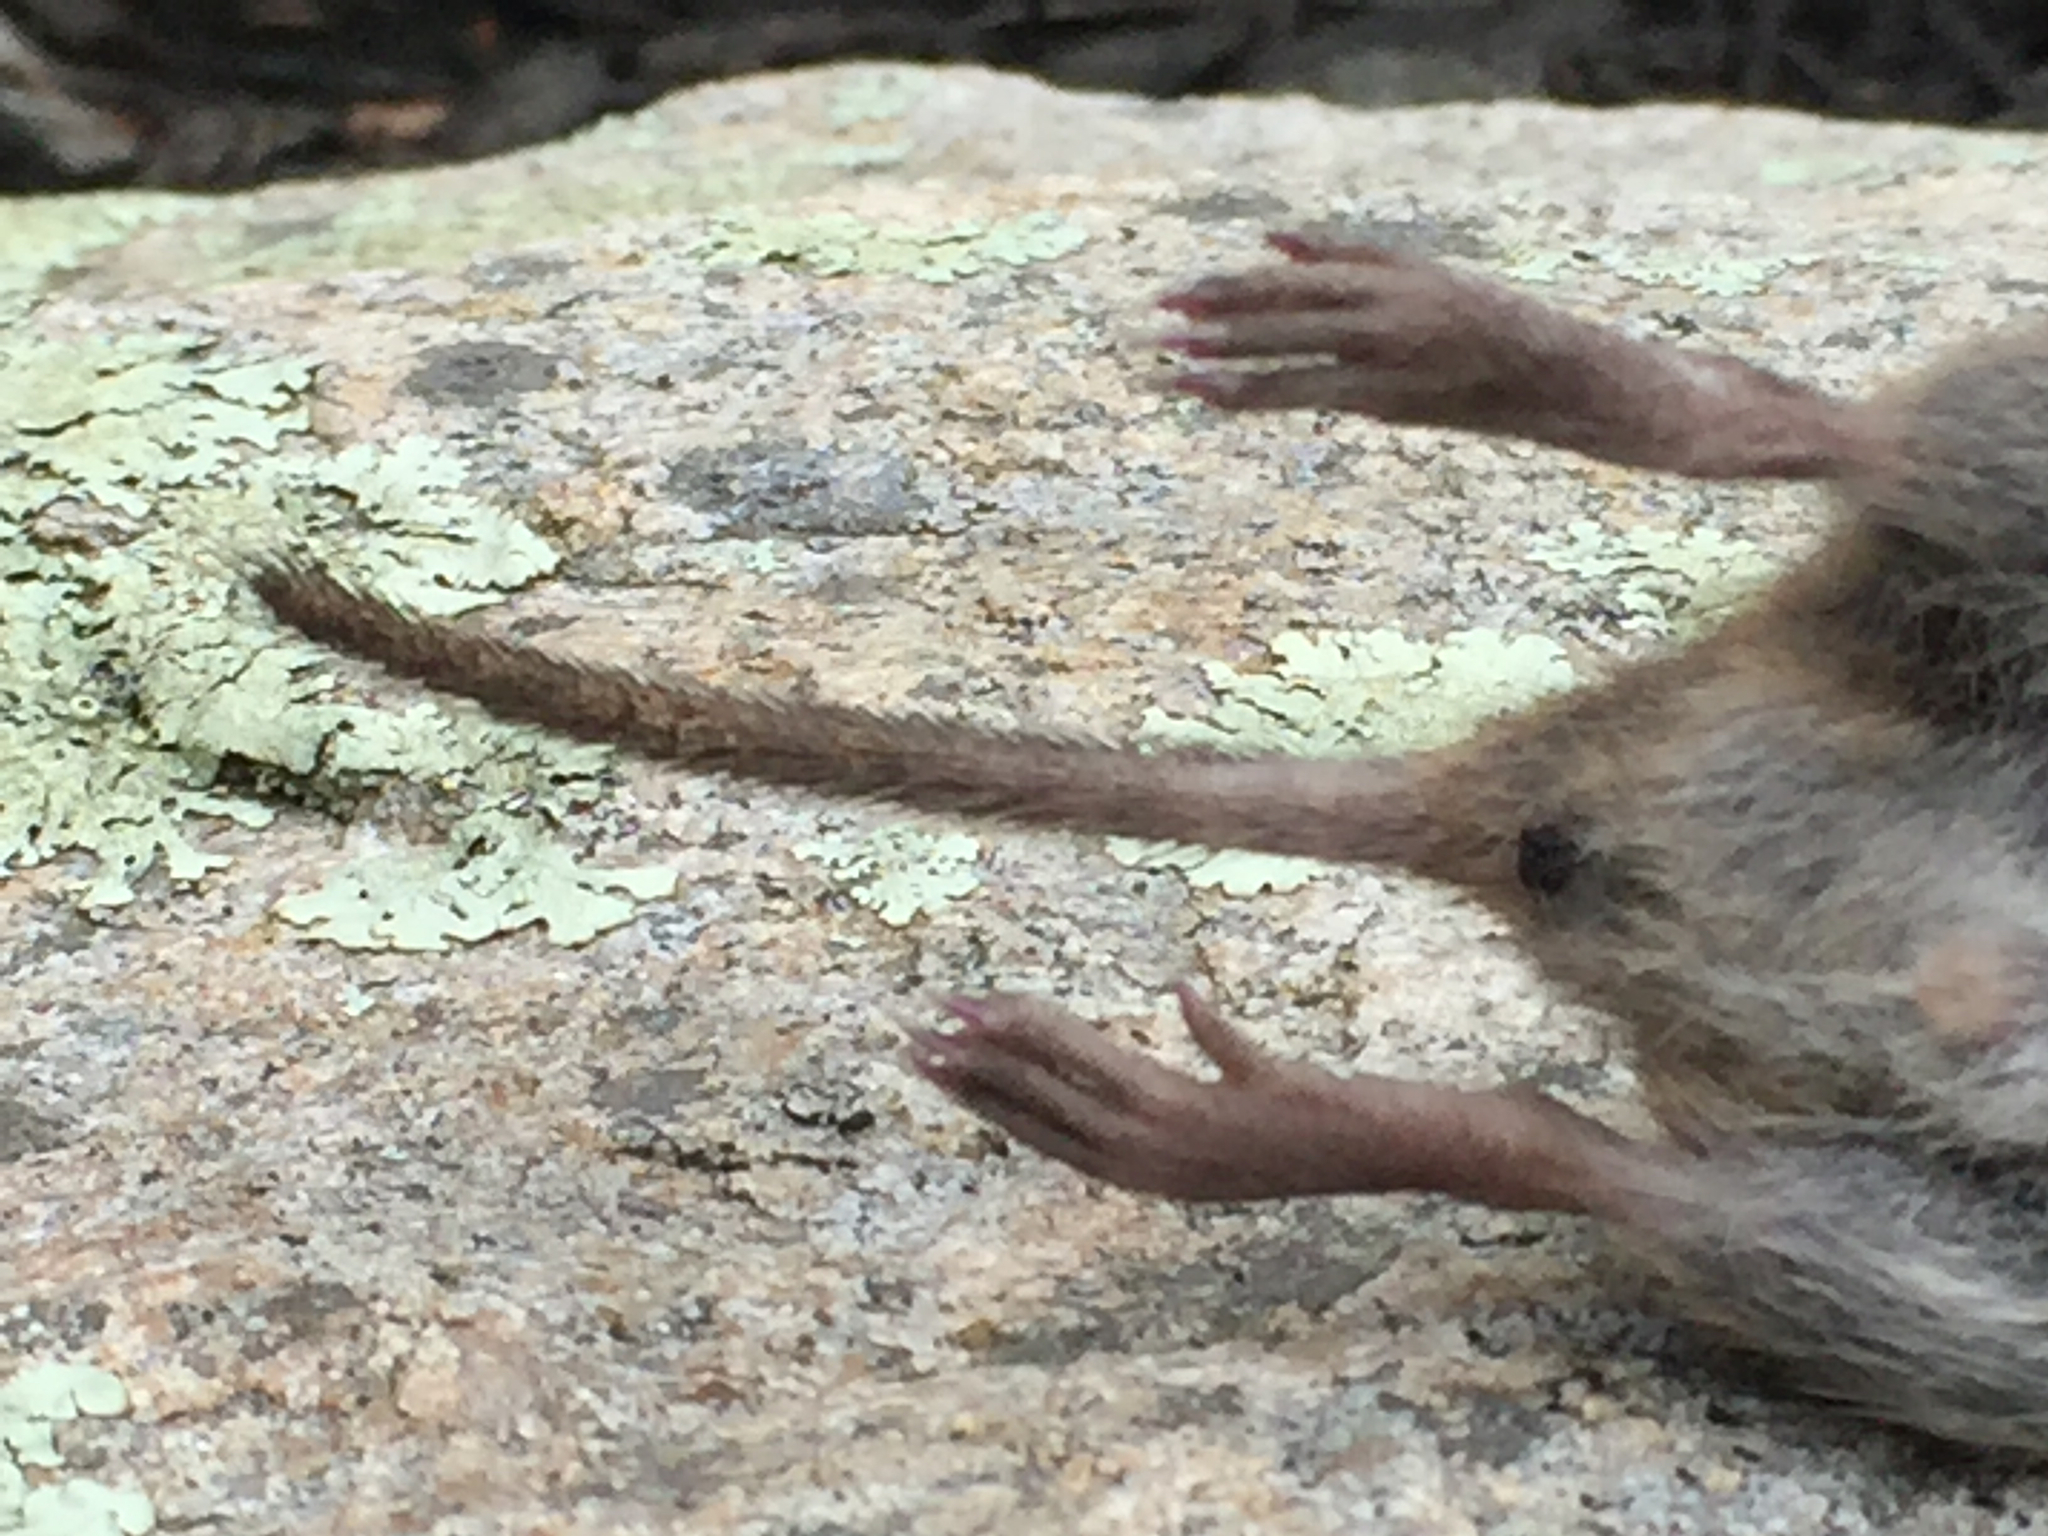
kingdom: Animalia
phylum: Chordata
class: Mammalia
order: Rodentia
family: Cricetidae
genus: Microtus
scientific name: Microtus pennsylvanicus
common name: Meadow vole
